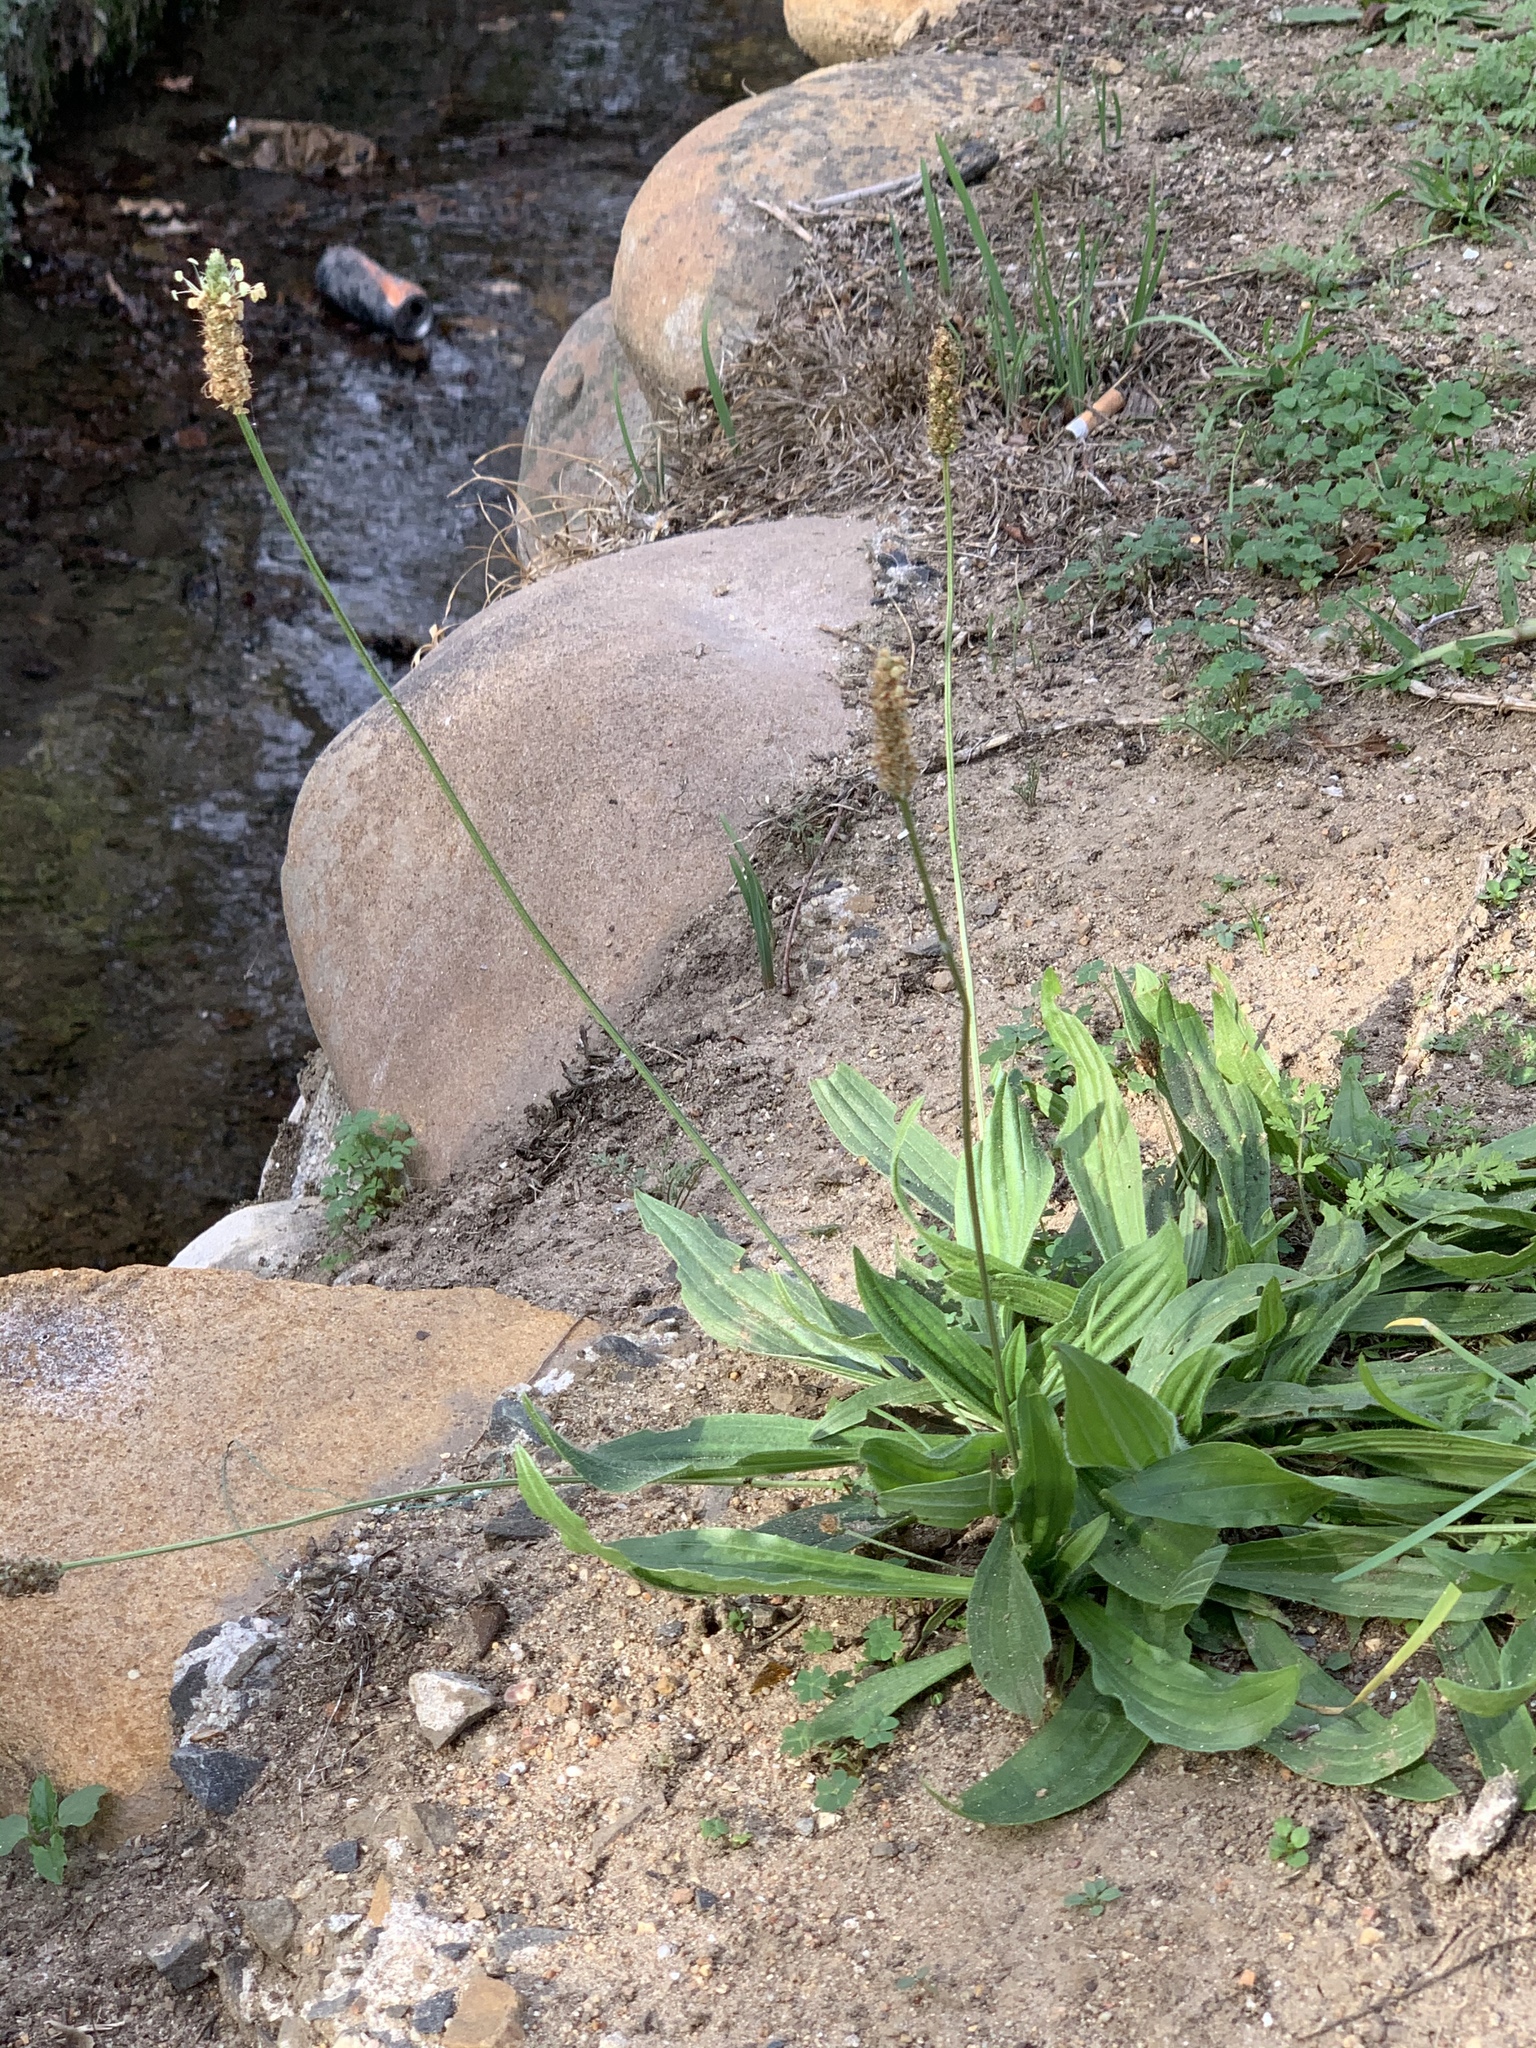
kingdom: Plantae
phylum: Tracheophyta
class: Magnoliopsida
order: Lamiales
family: Plantaginaceae
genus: Plantago
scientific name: Plantago lanceolata
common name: Ribwort plantain
